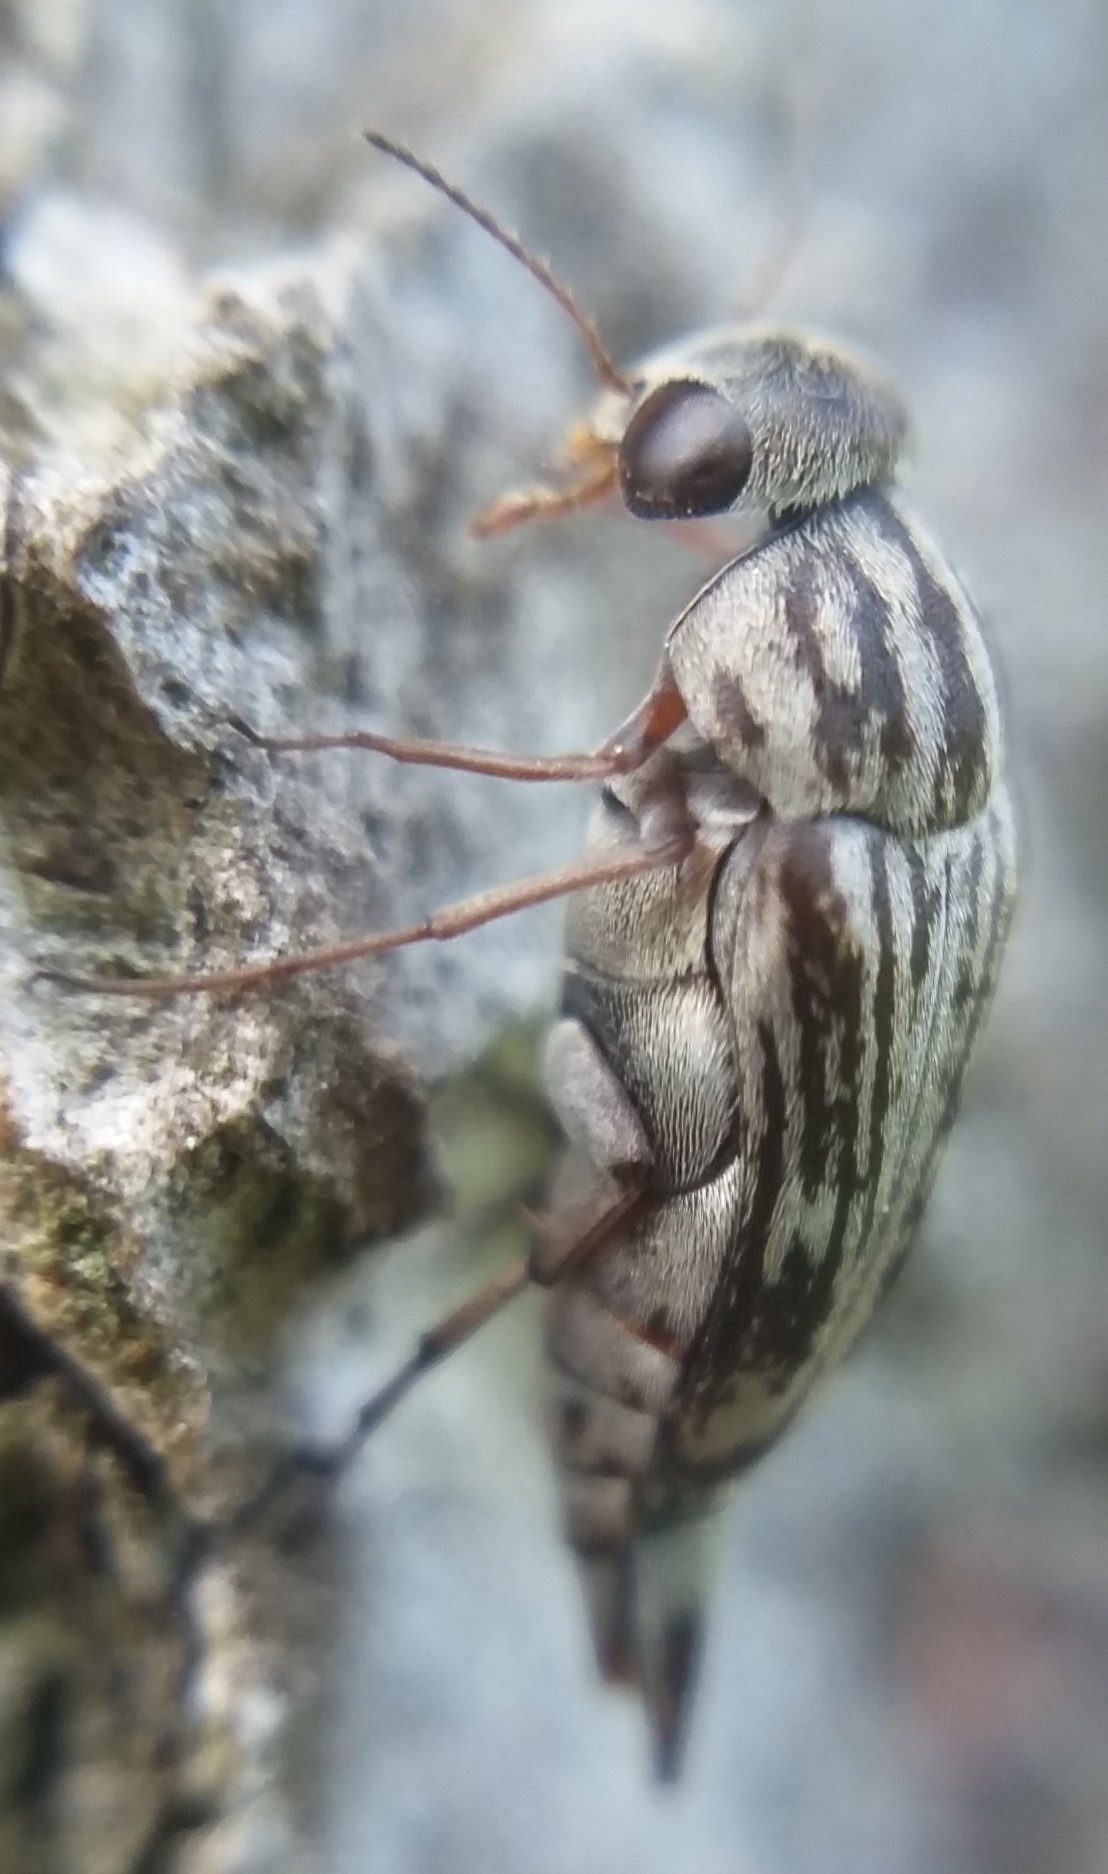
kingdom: Animalia
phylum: Arthropoda
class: Insecta
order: Coleoptera
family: Mordellidae
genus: Tomoxia
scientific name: Tomoxia lineella
